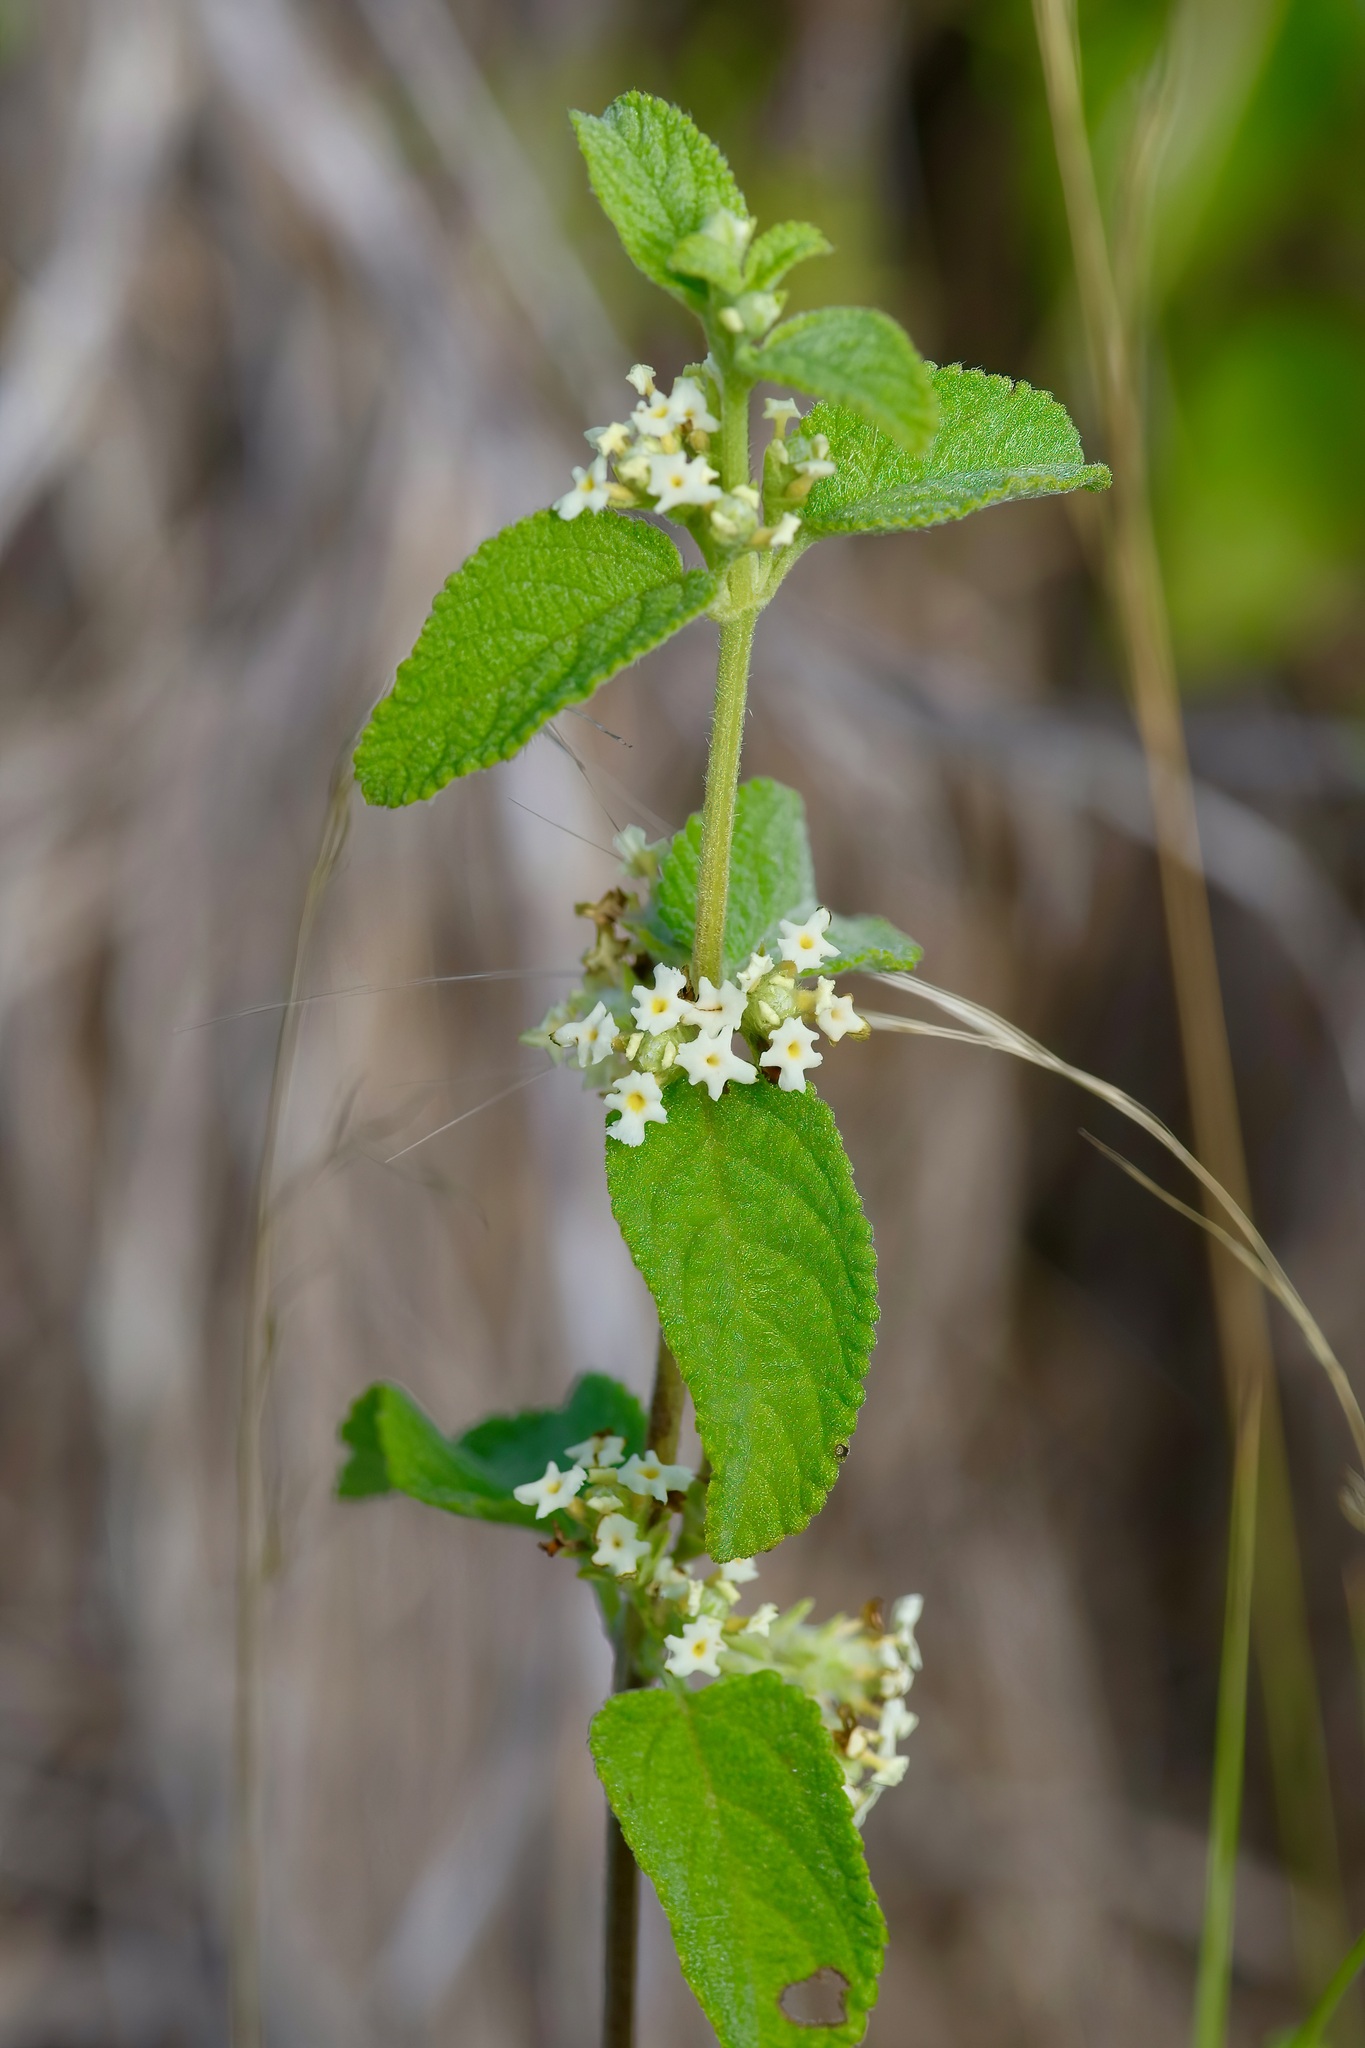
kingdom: Plantae
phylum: Tracheophyta
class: Magnoliopsida
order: Lamiales
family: Verbenaceae
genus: Lippia
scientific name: Lippia origanoides
